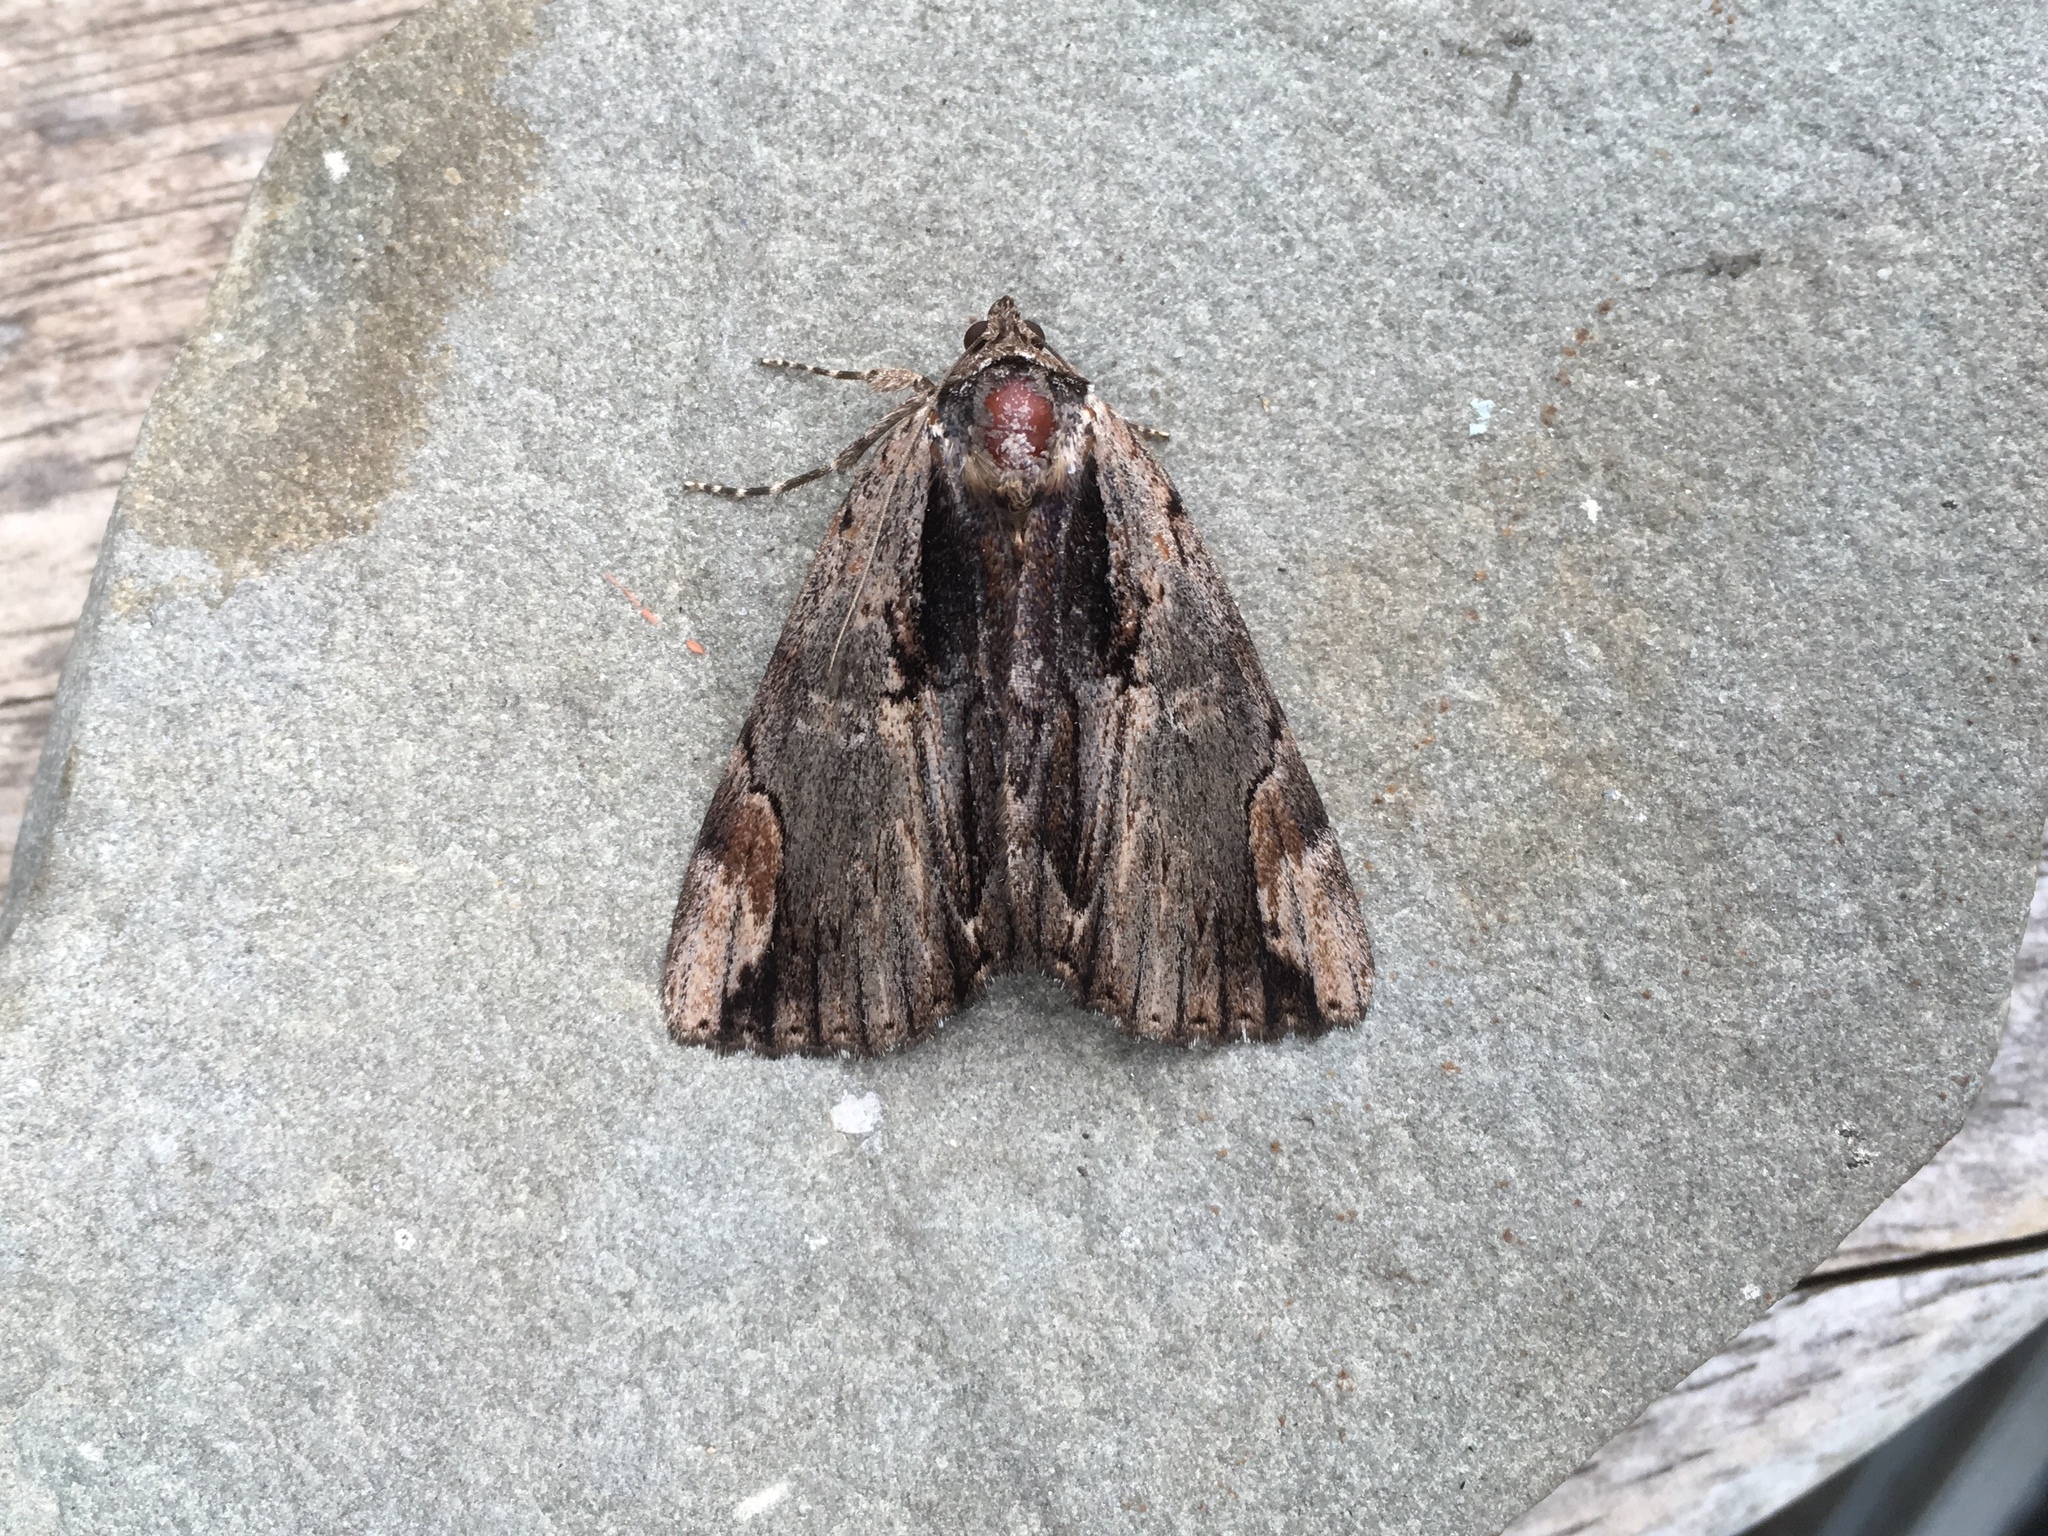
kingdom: Animalia
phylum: Arthropoda
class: Insecta
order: Lepidoptera
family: Erebidae
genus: Catocala
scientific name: Catocala ultronia
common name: Ultronia underwing
